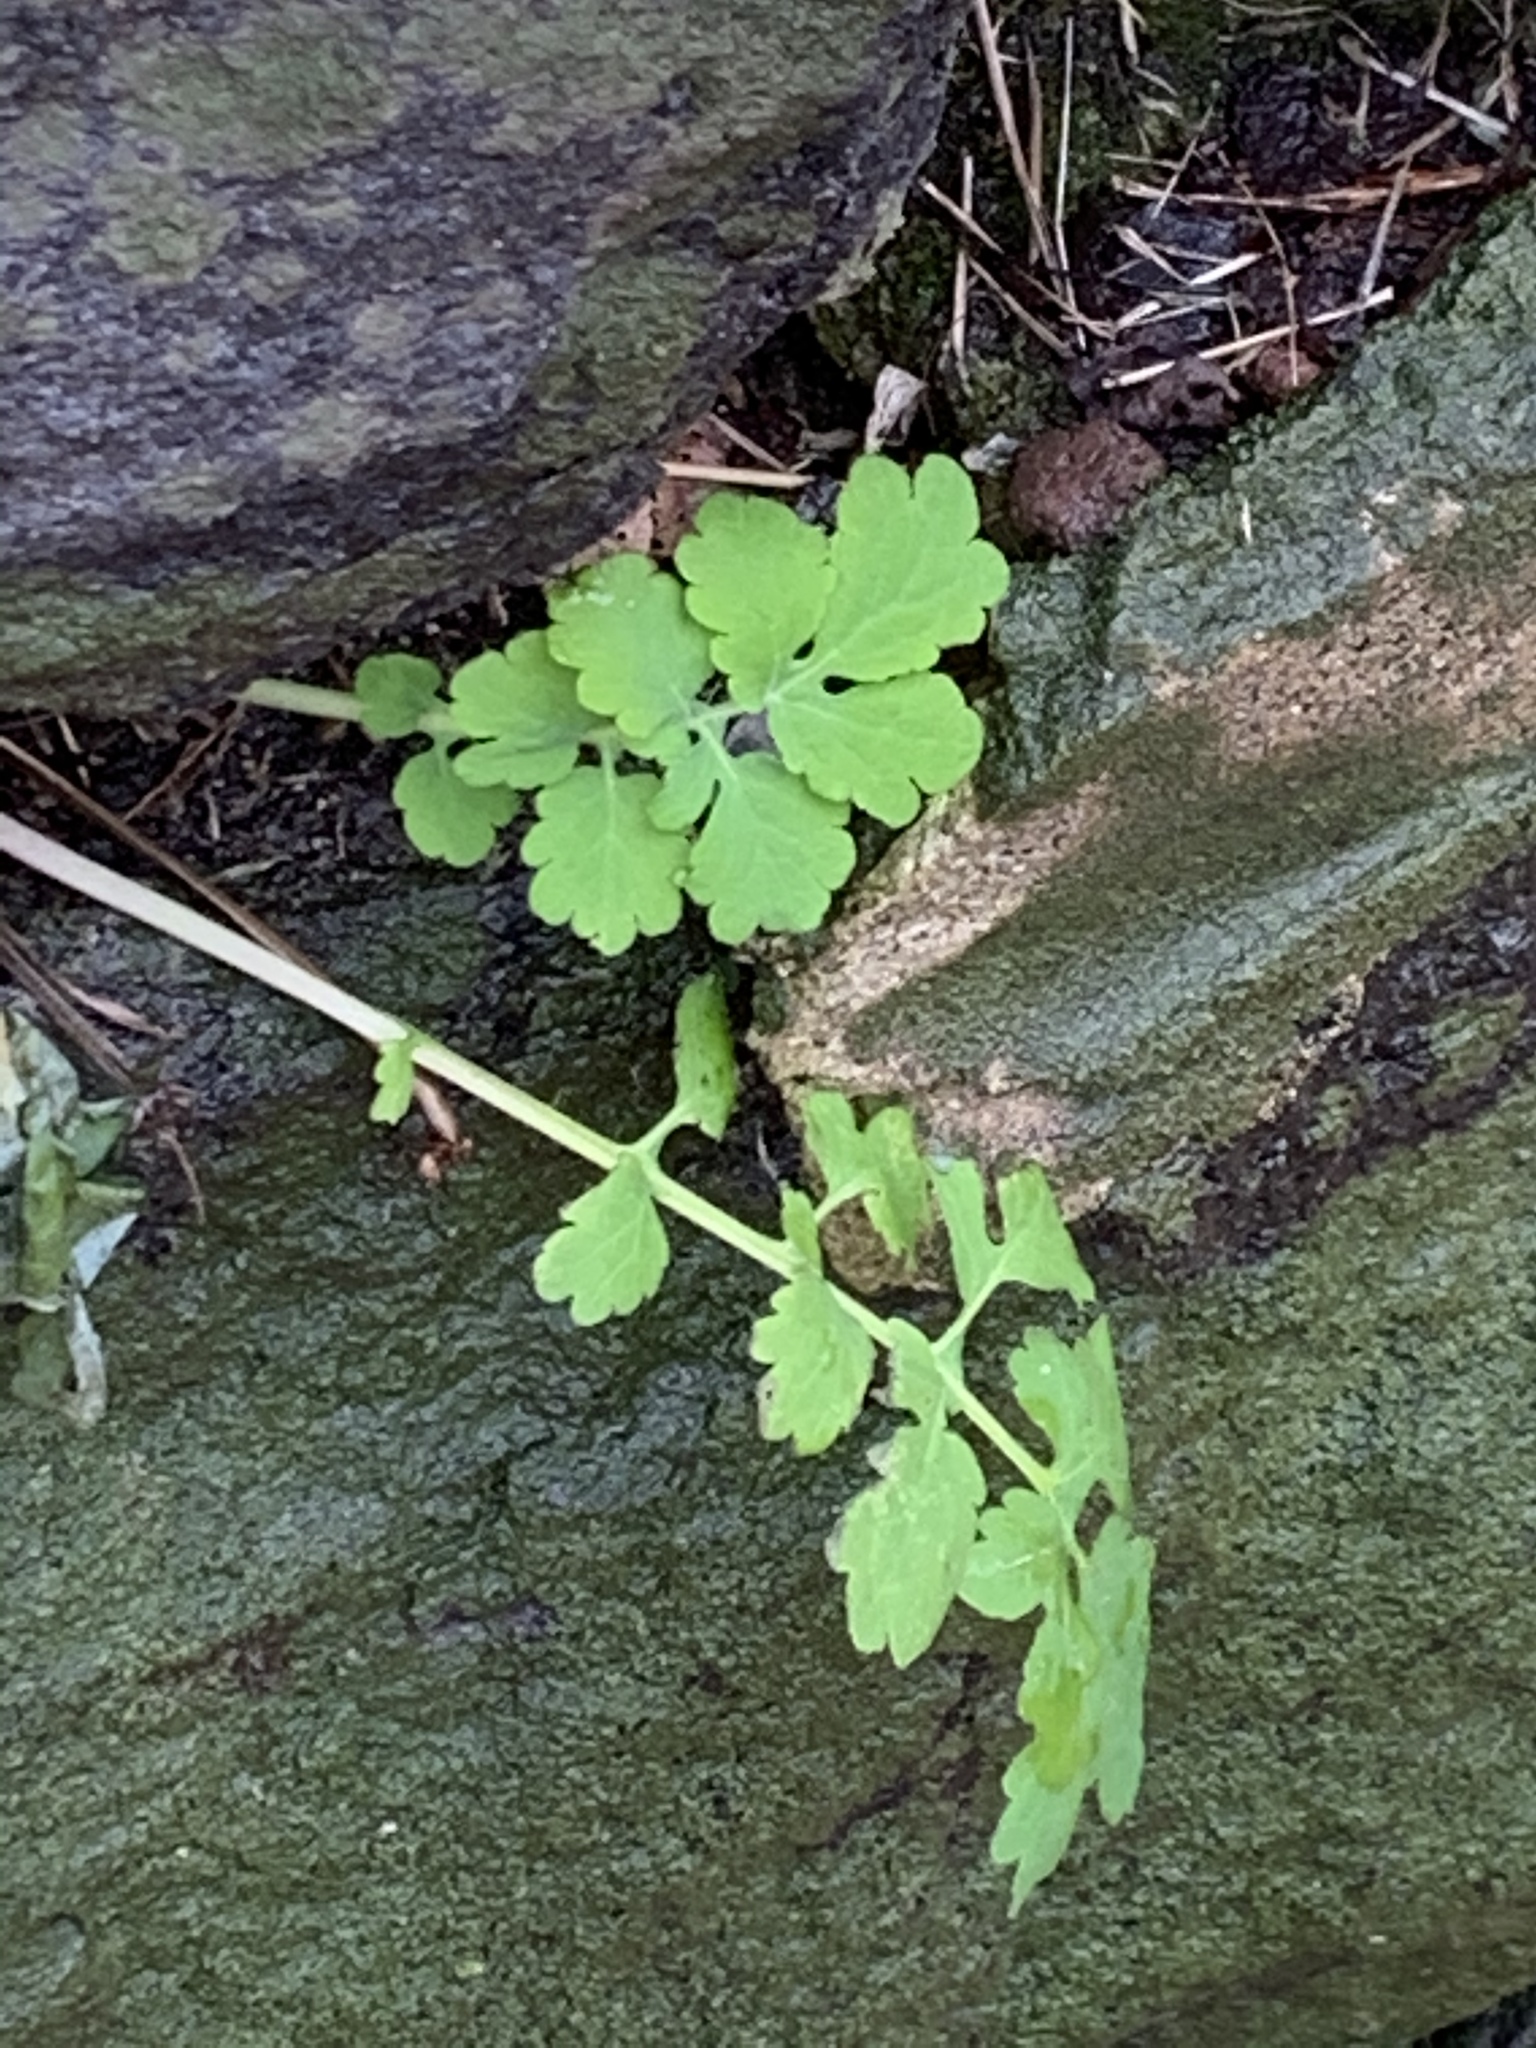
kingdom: Plantae
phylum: Tracheophyta
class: Magnoliopsida
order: Ranunculales
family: Papaveraceae
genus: Chelidonium
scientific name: Chelidonium majus
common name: Greater celandine
